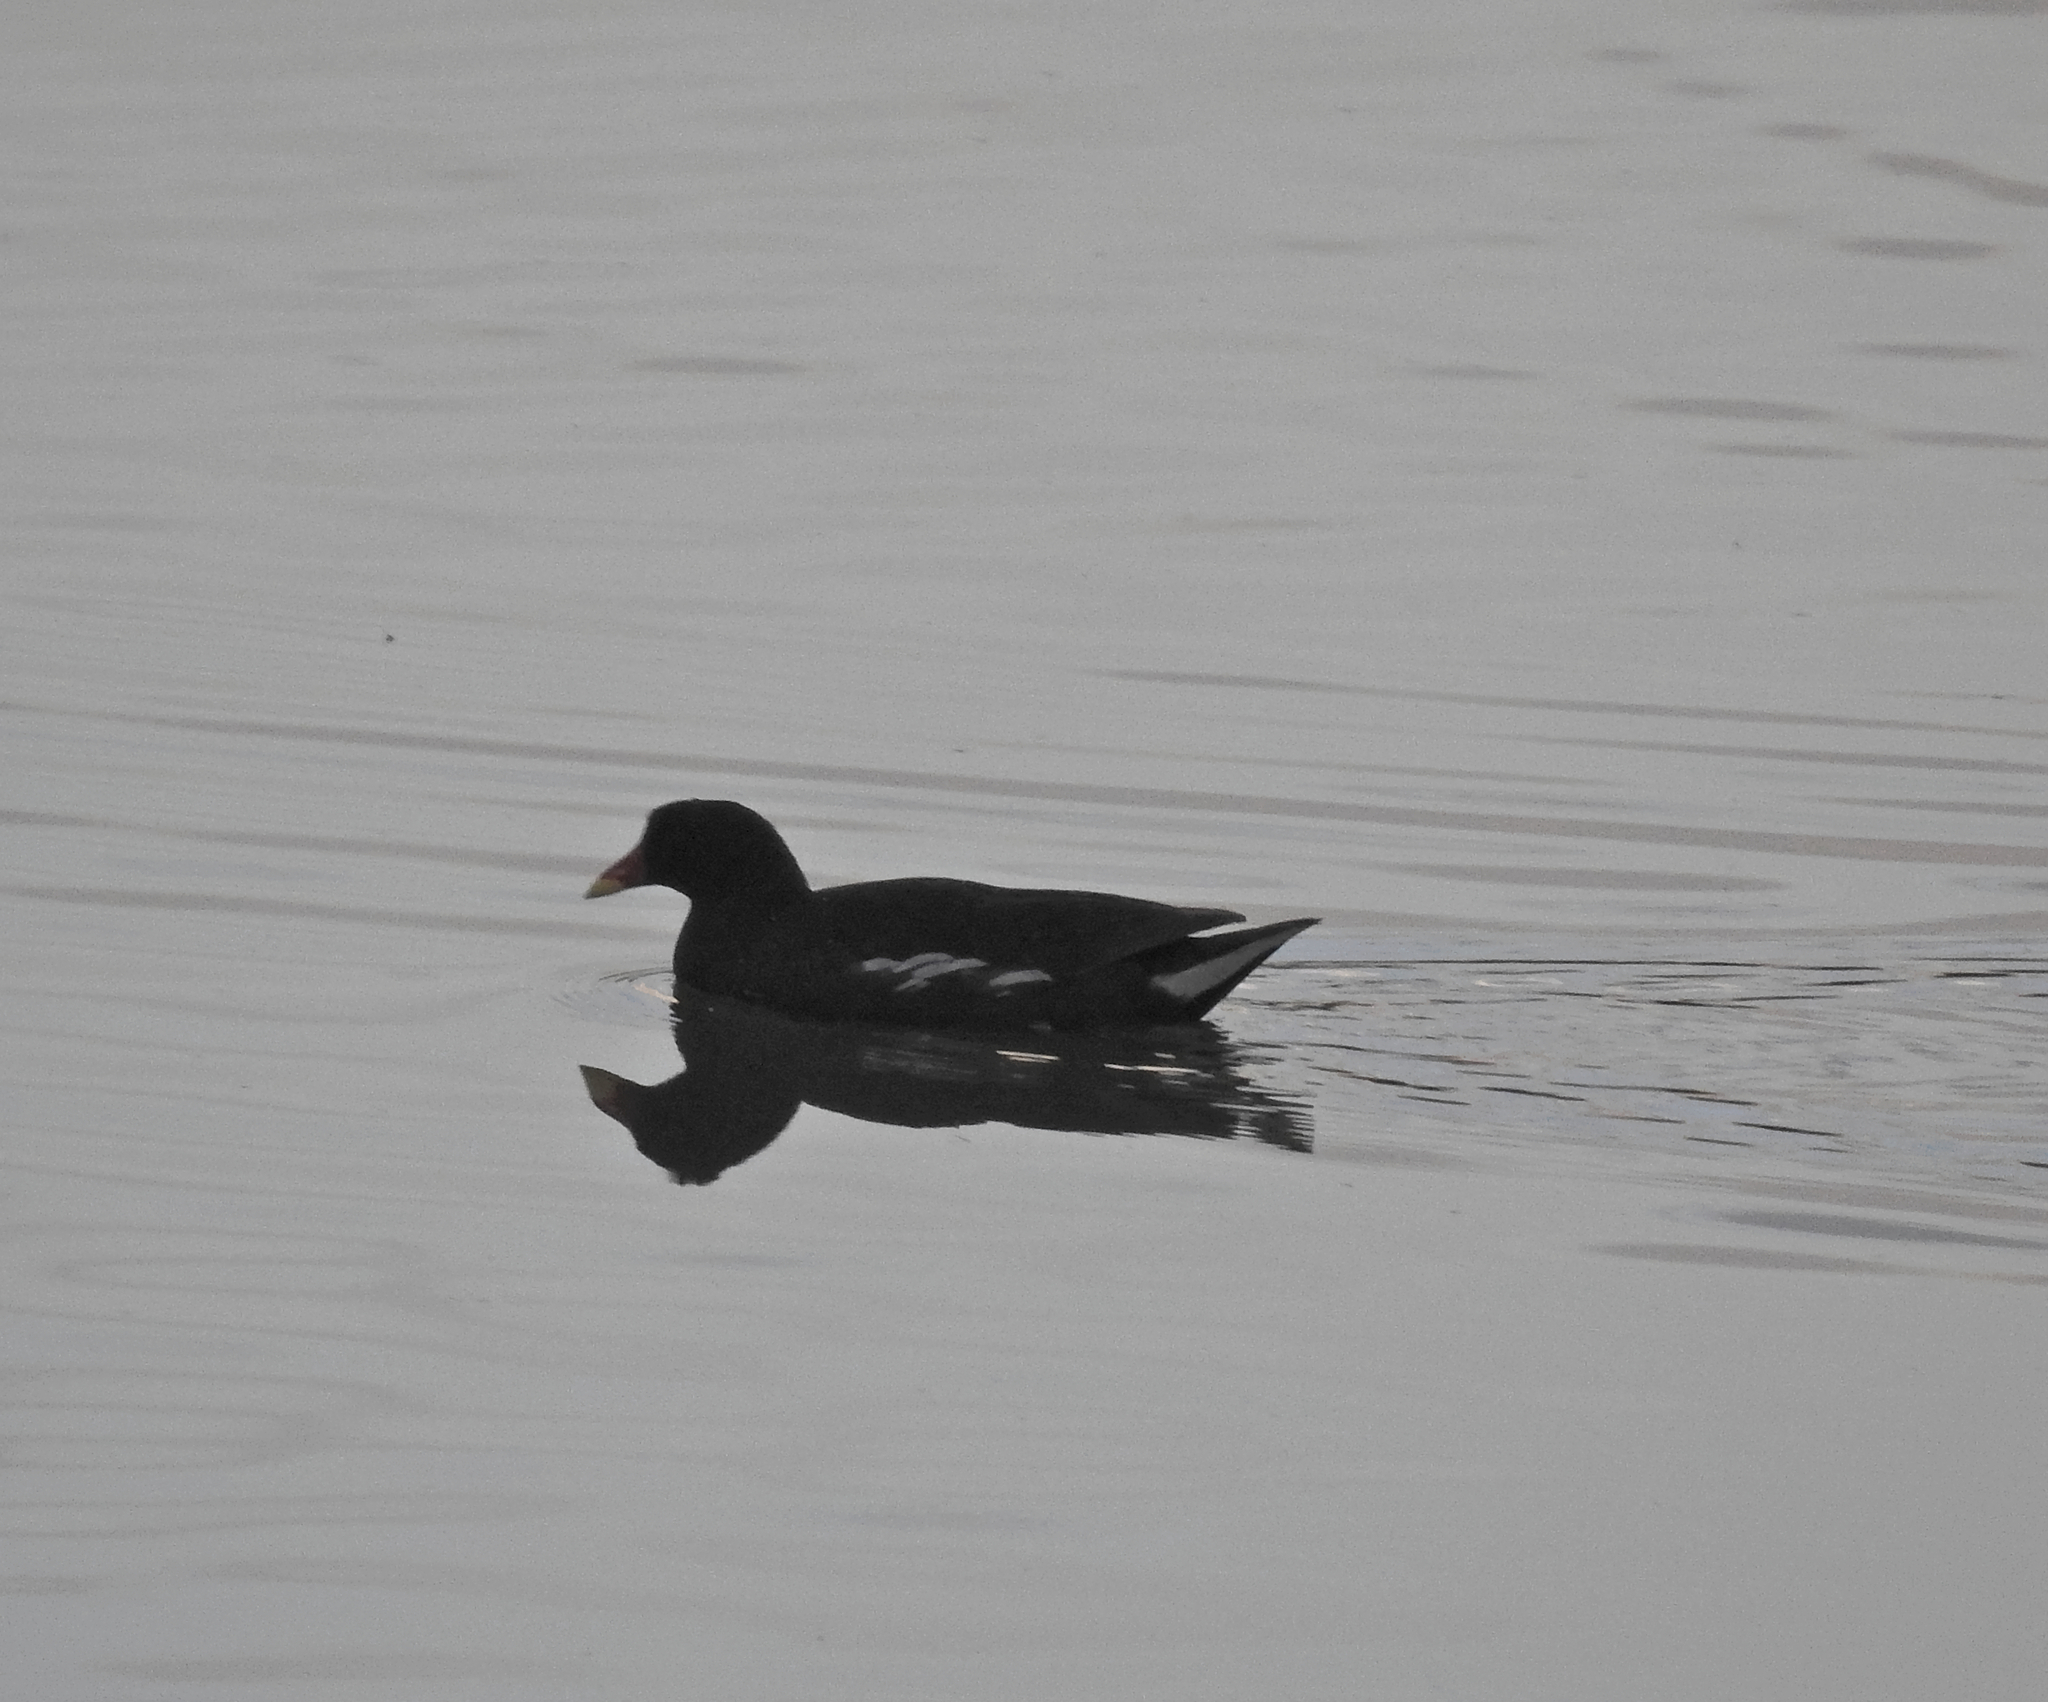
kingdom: Animalia
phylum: Chordata
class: Aves
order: Gruiformes
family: Rallidae
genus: Gallinula
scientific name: Gallinula chloropus
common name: Common moorhen
